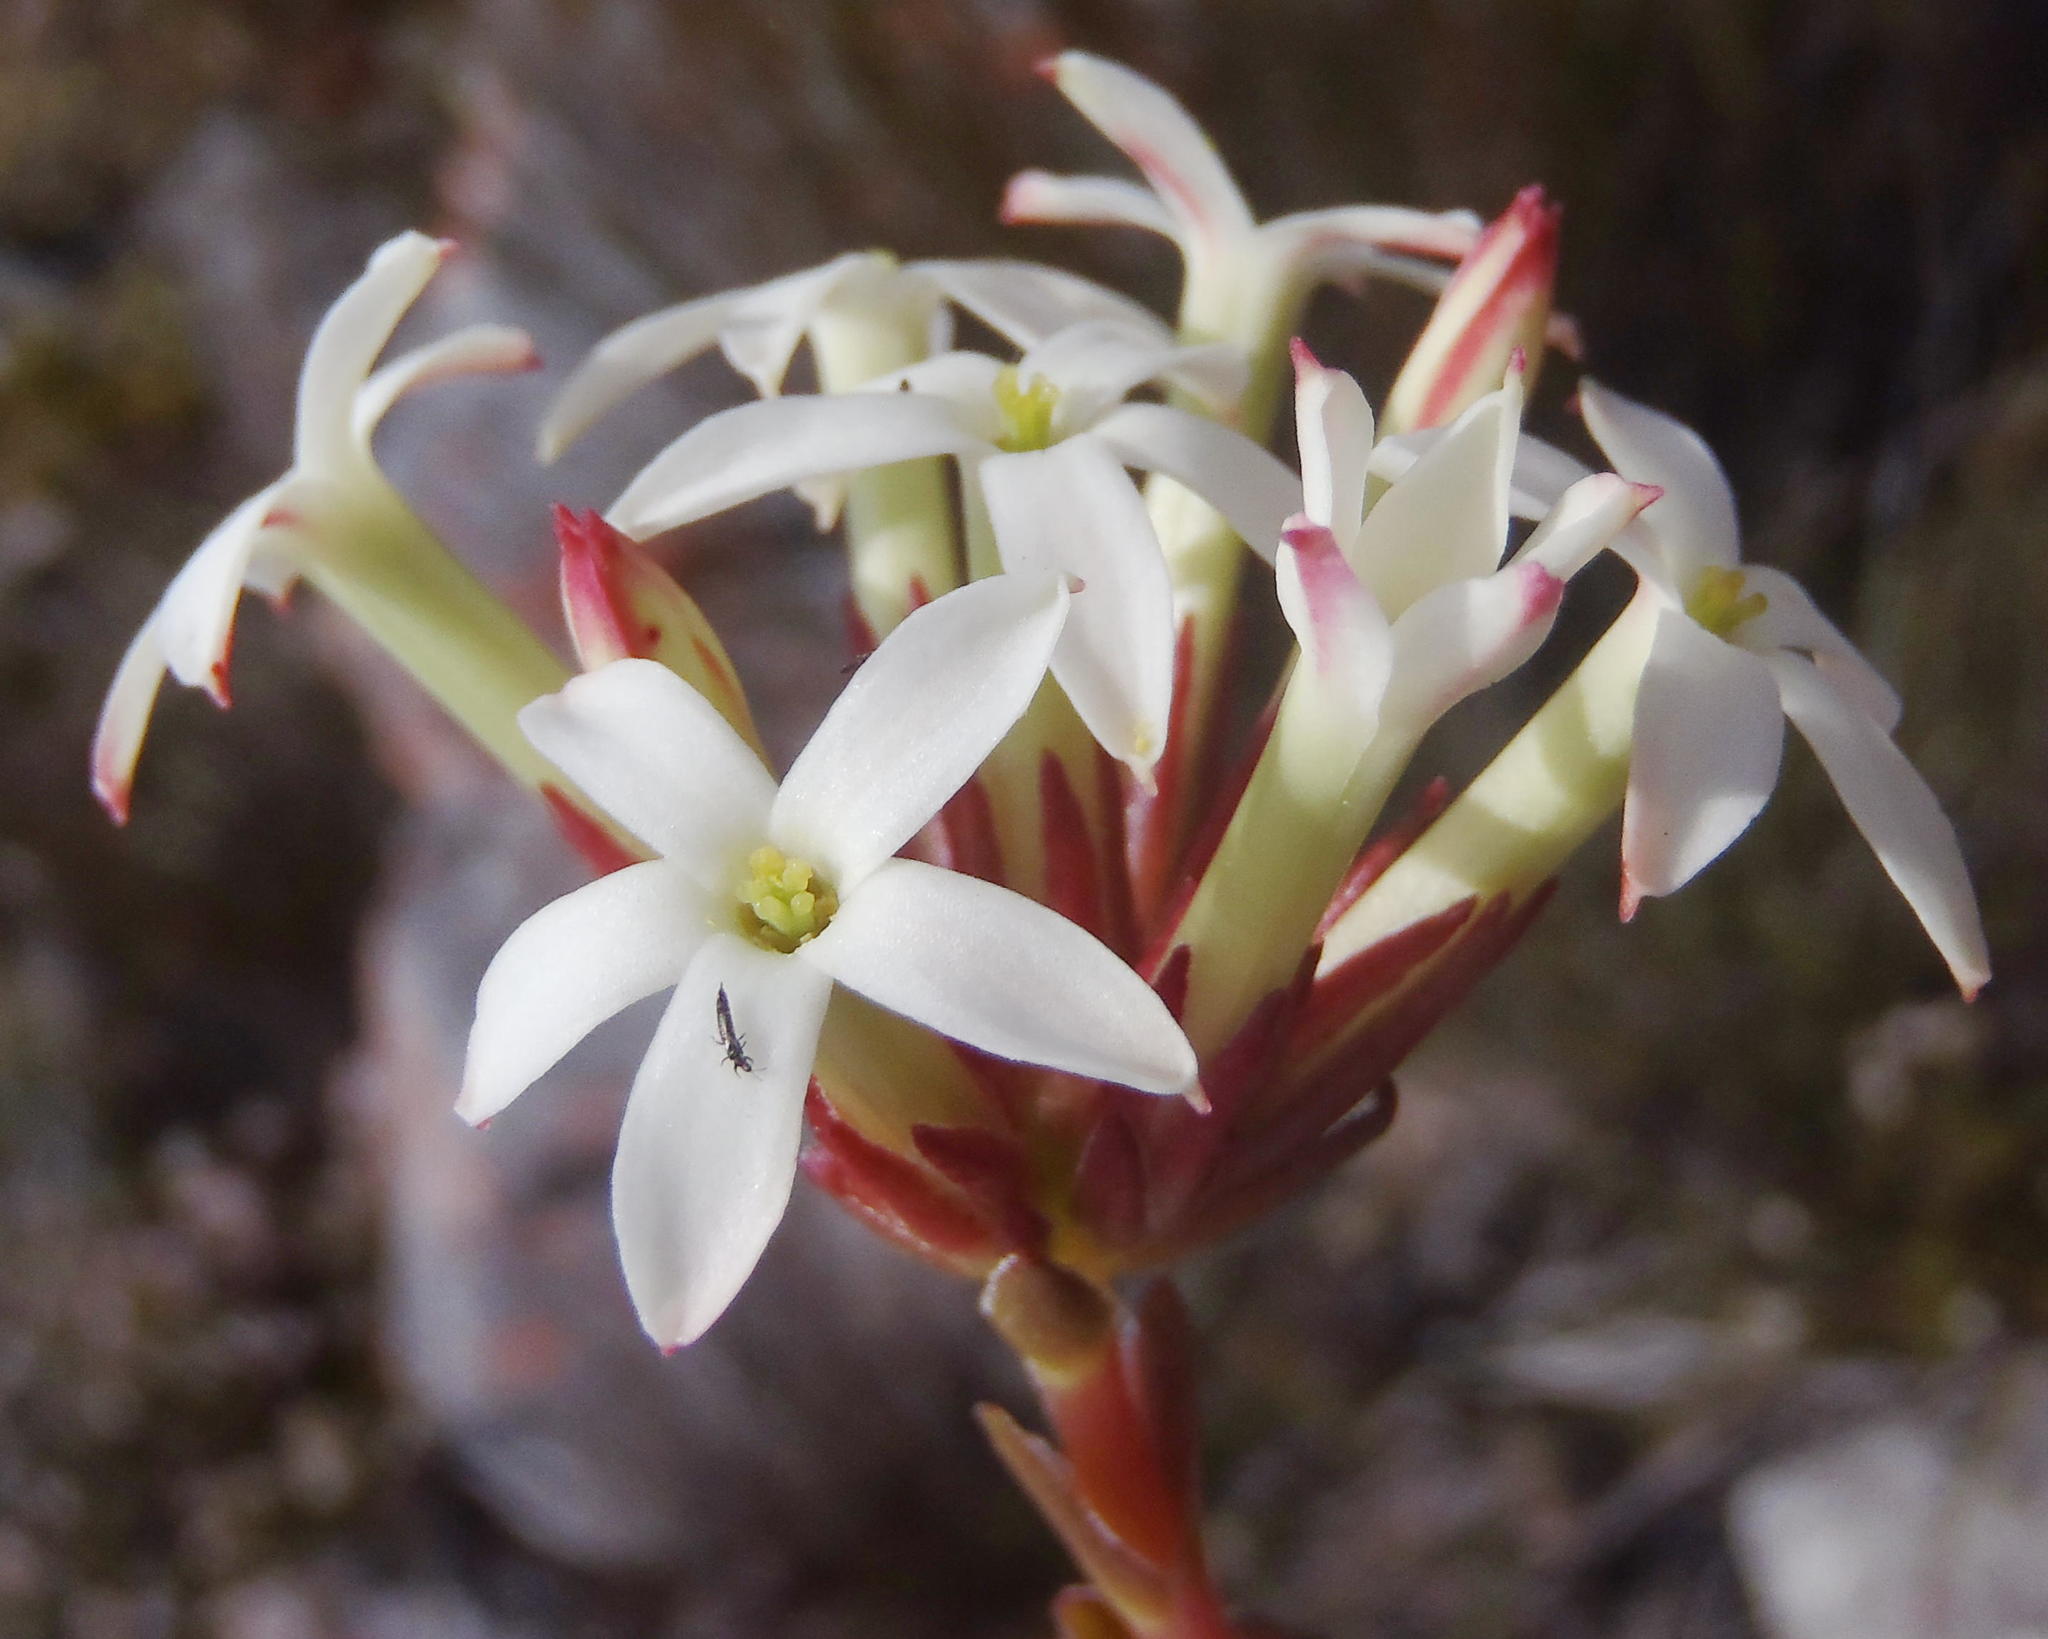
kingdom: Plantae
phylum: Tracheophyta
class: Magnoliopsida
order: Saxifragales
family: Crassulaceae
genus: Crassula
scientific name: Crassula fascicularis
